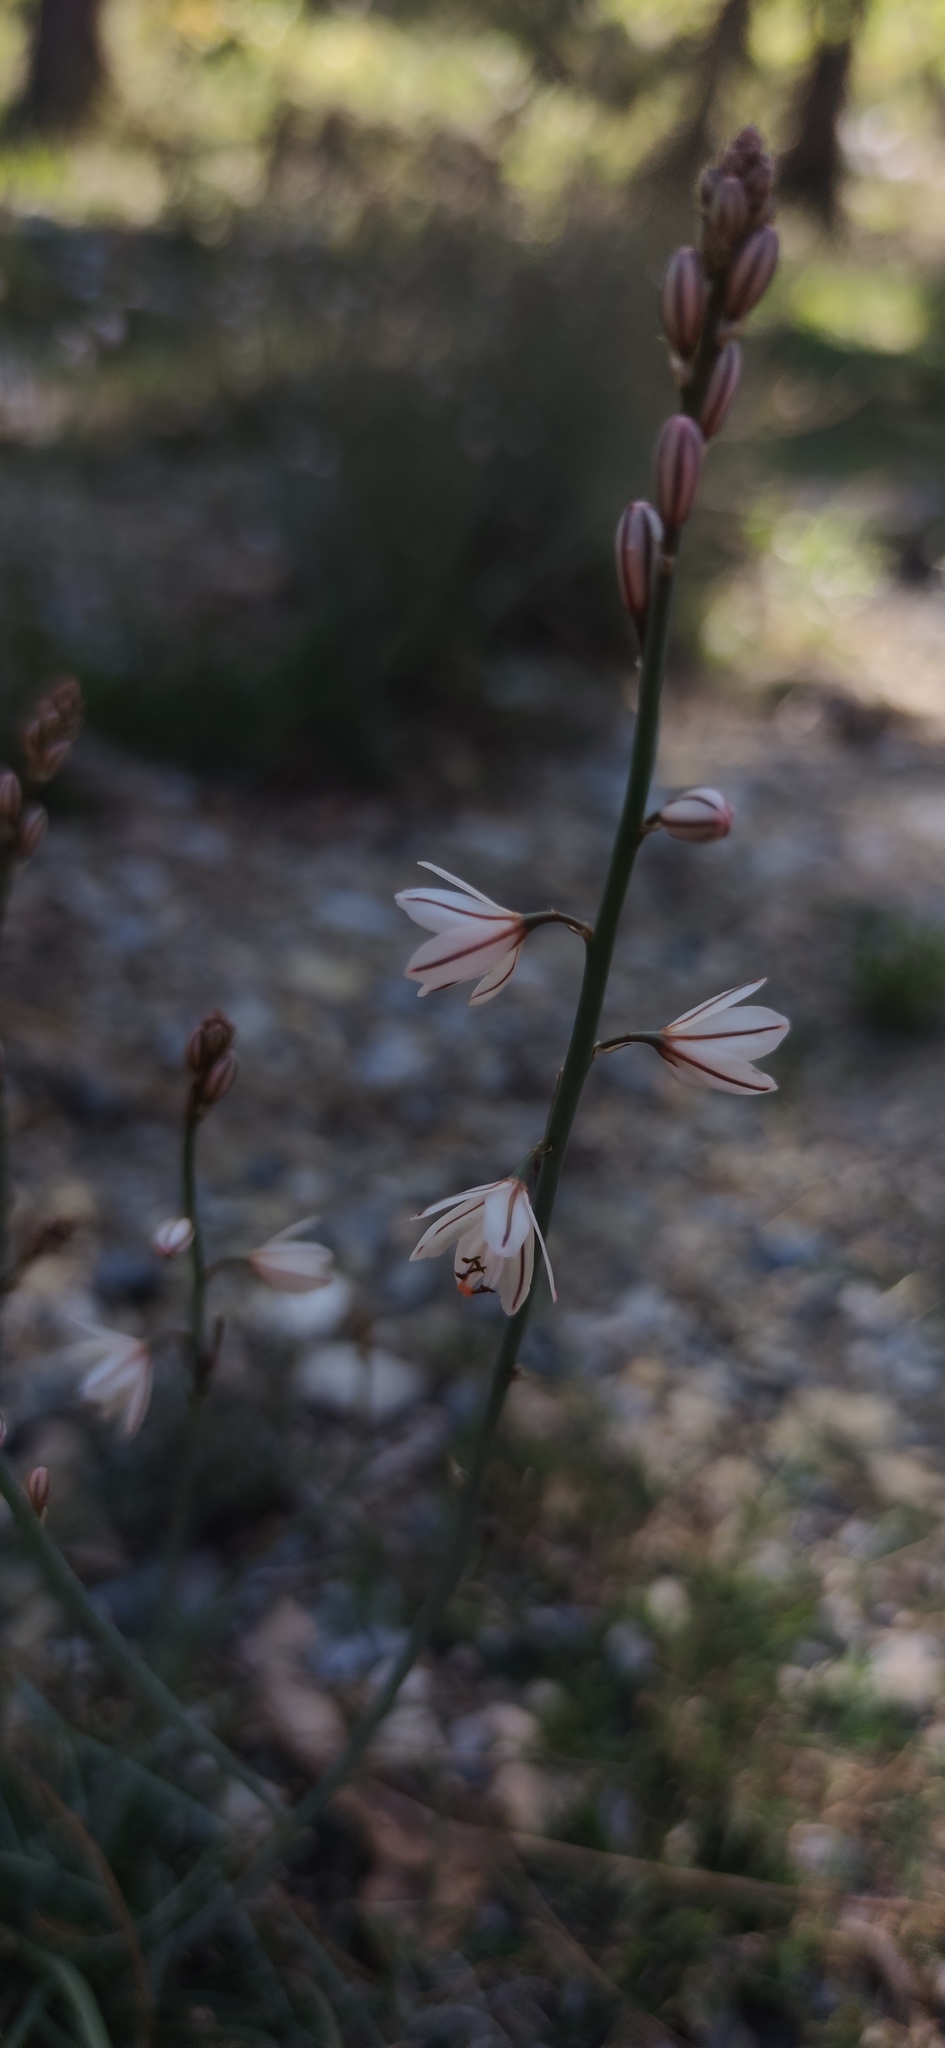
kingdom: Plantae
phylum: Tracheophyta
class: Liliopsida
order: Asparagales
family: Asphodelaceae
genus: Asphodelus
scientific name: Asphodelus fistulosus
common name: Onionweed
